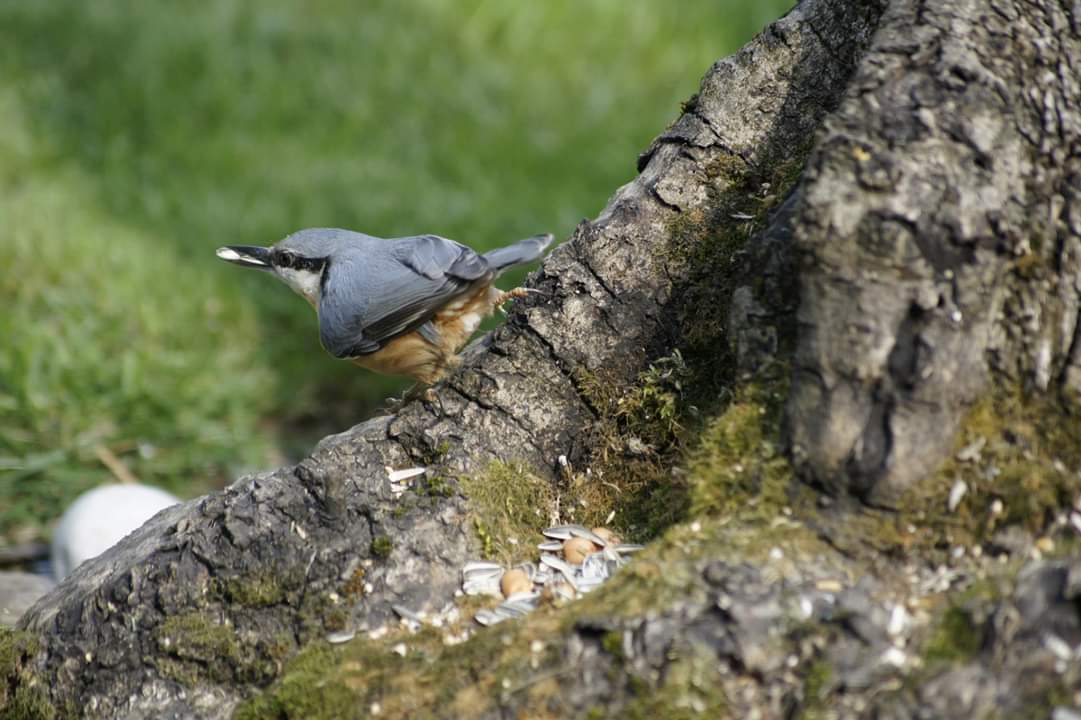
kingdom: Animalia
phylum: Chordata
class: Aves
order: Passeriformes
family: Sittidae
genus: Sitta
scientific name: Sitta europaea
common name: Eurasian nuthatch
